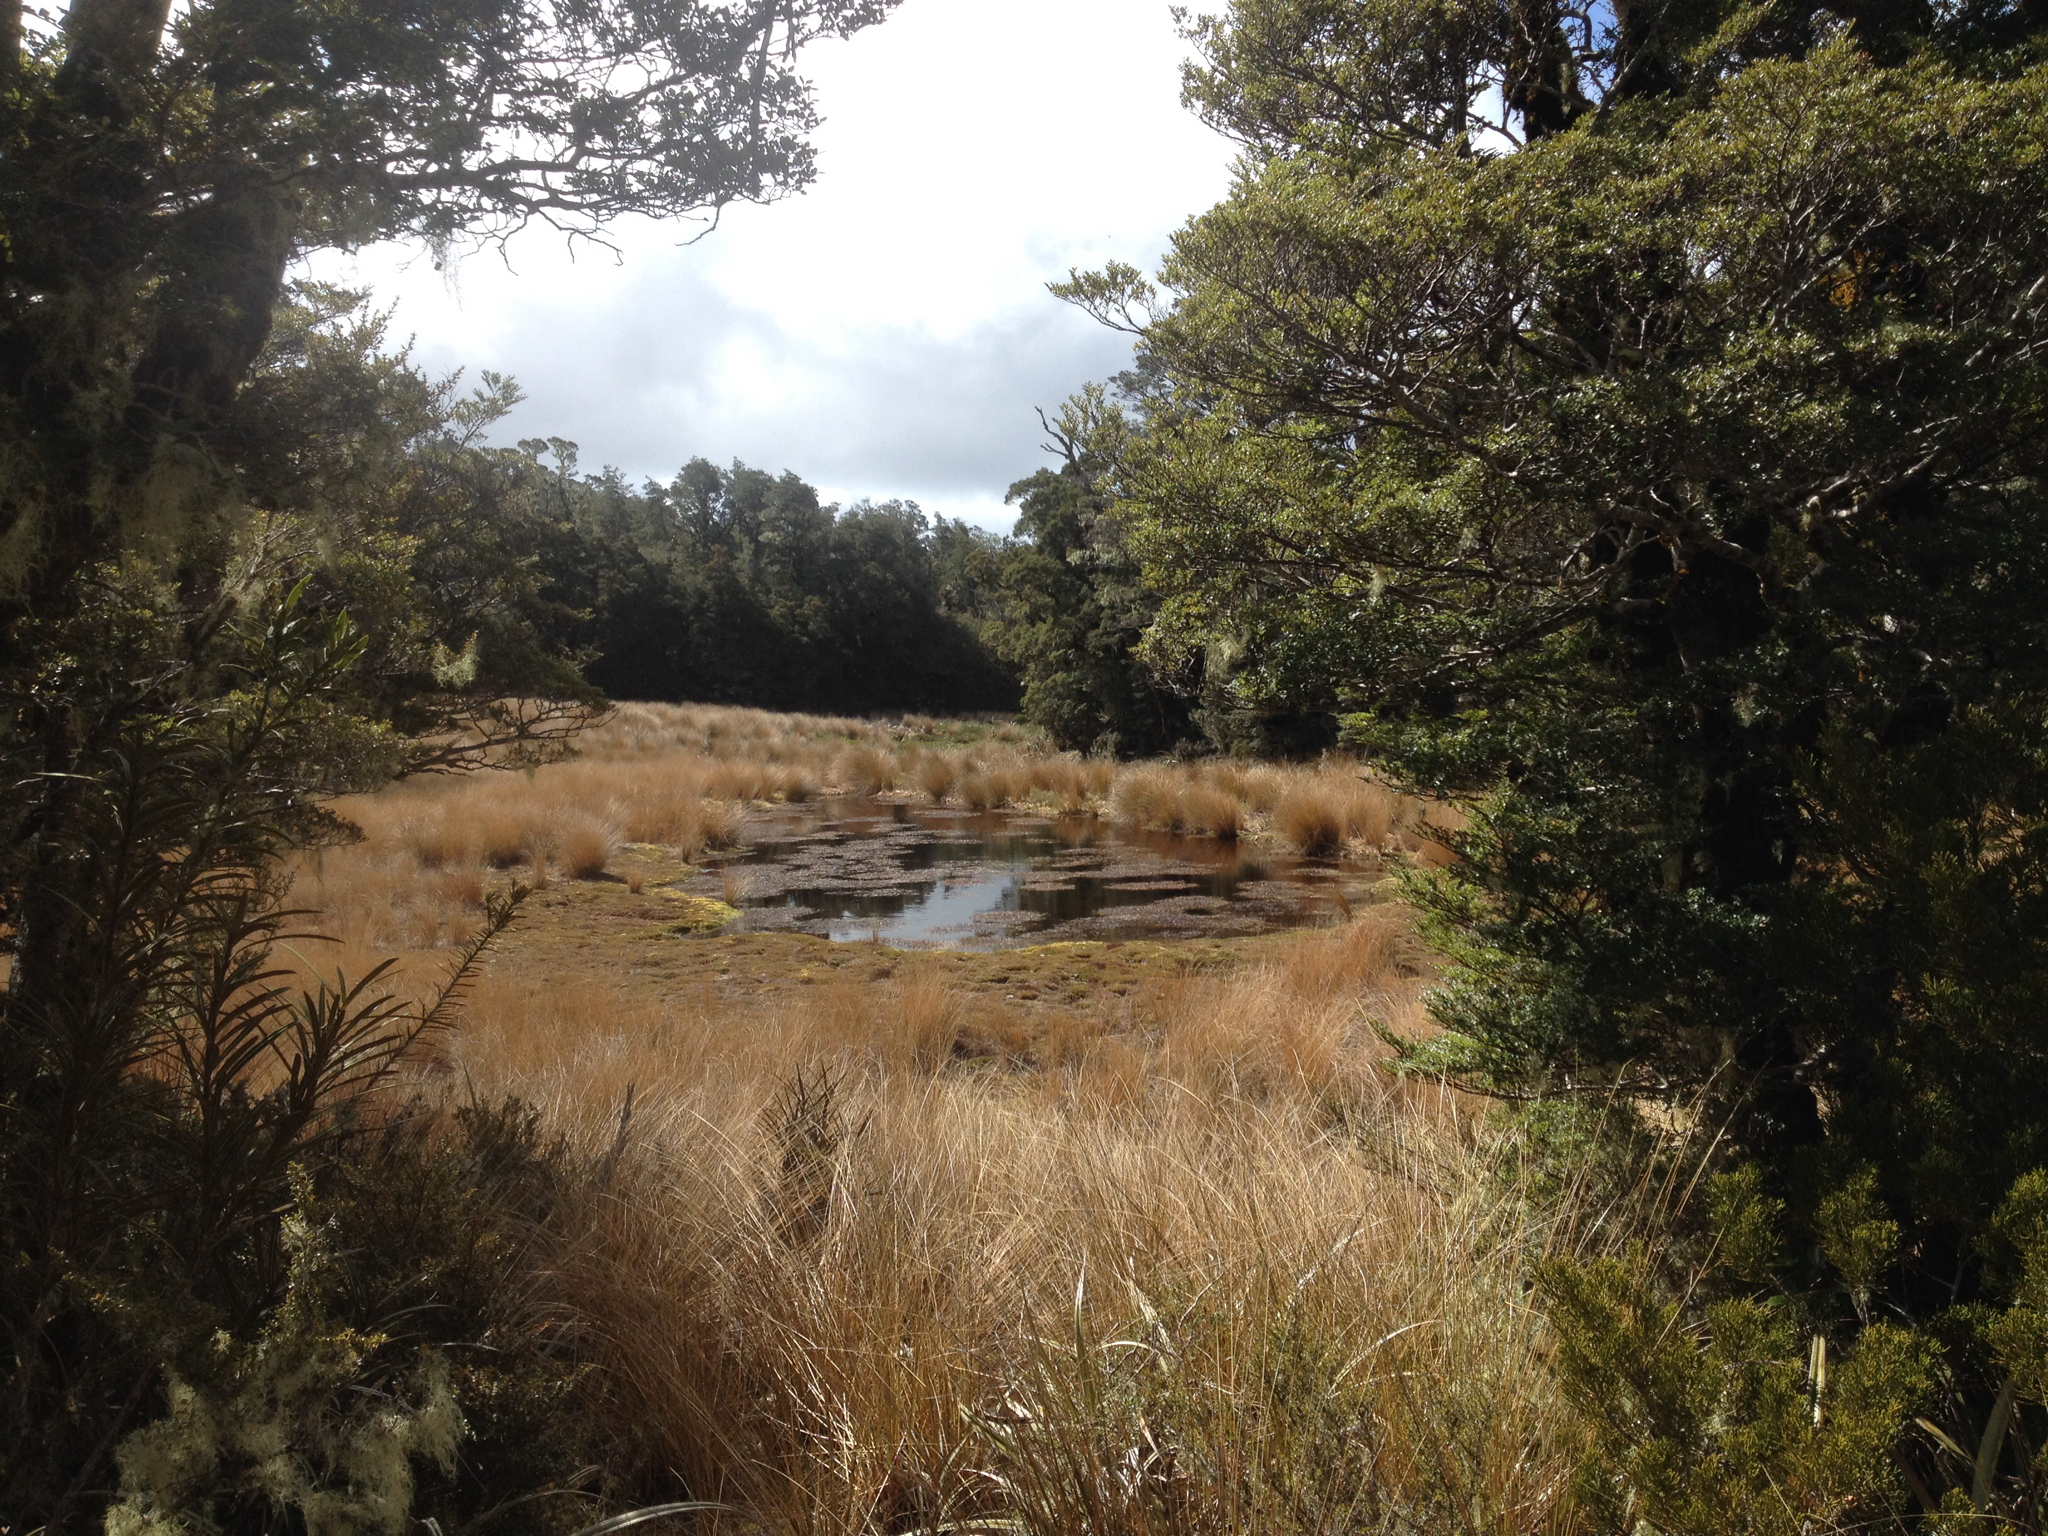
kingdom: Plantae
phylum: Tracheophyta
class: Liliopsida
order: Poales
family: Poaceae
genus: Chionochloa
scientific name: Chionochloa rubra
